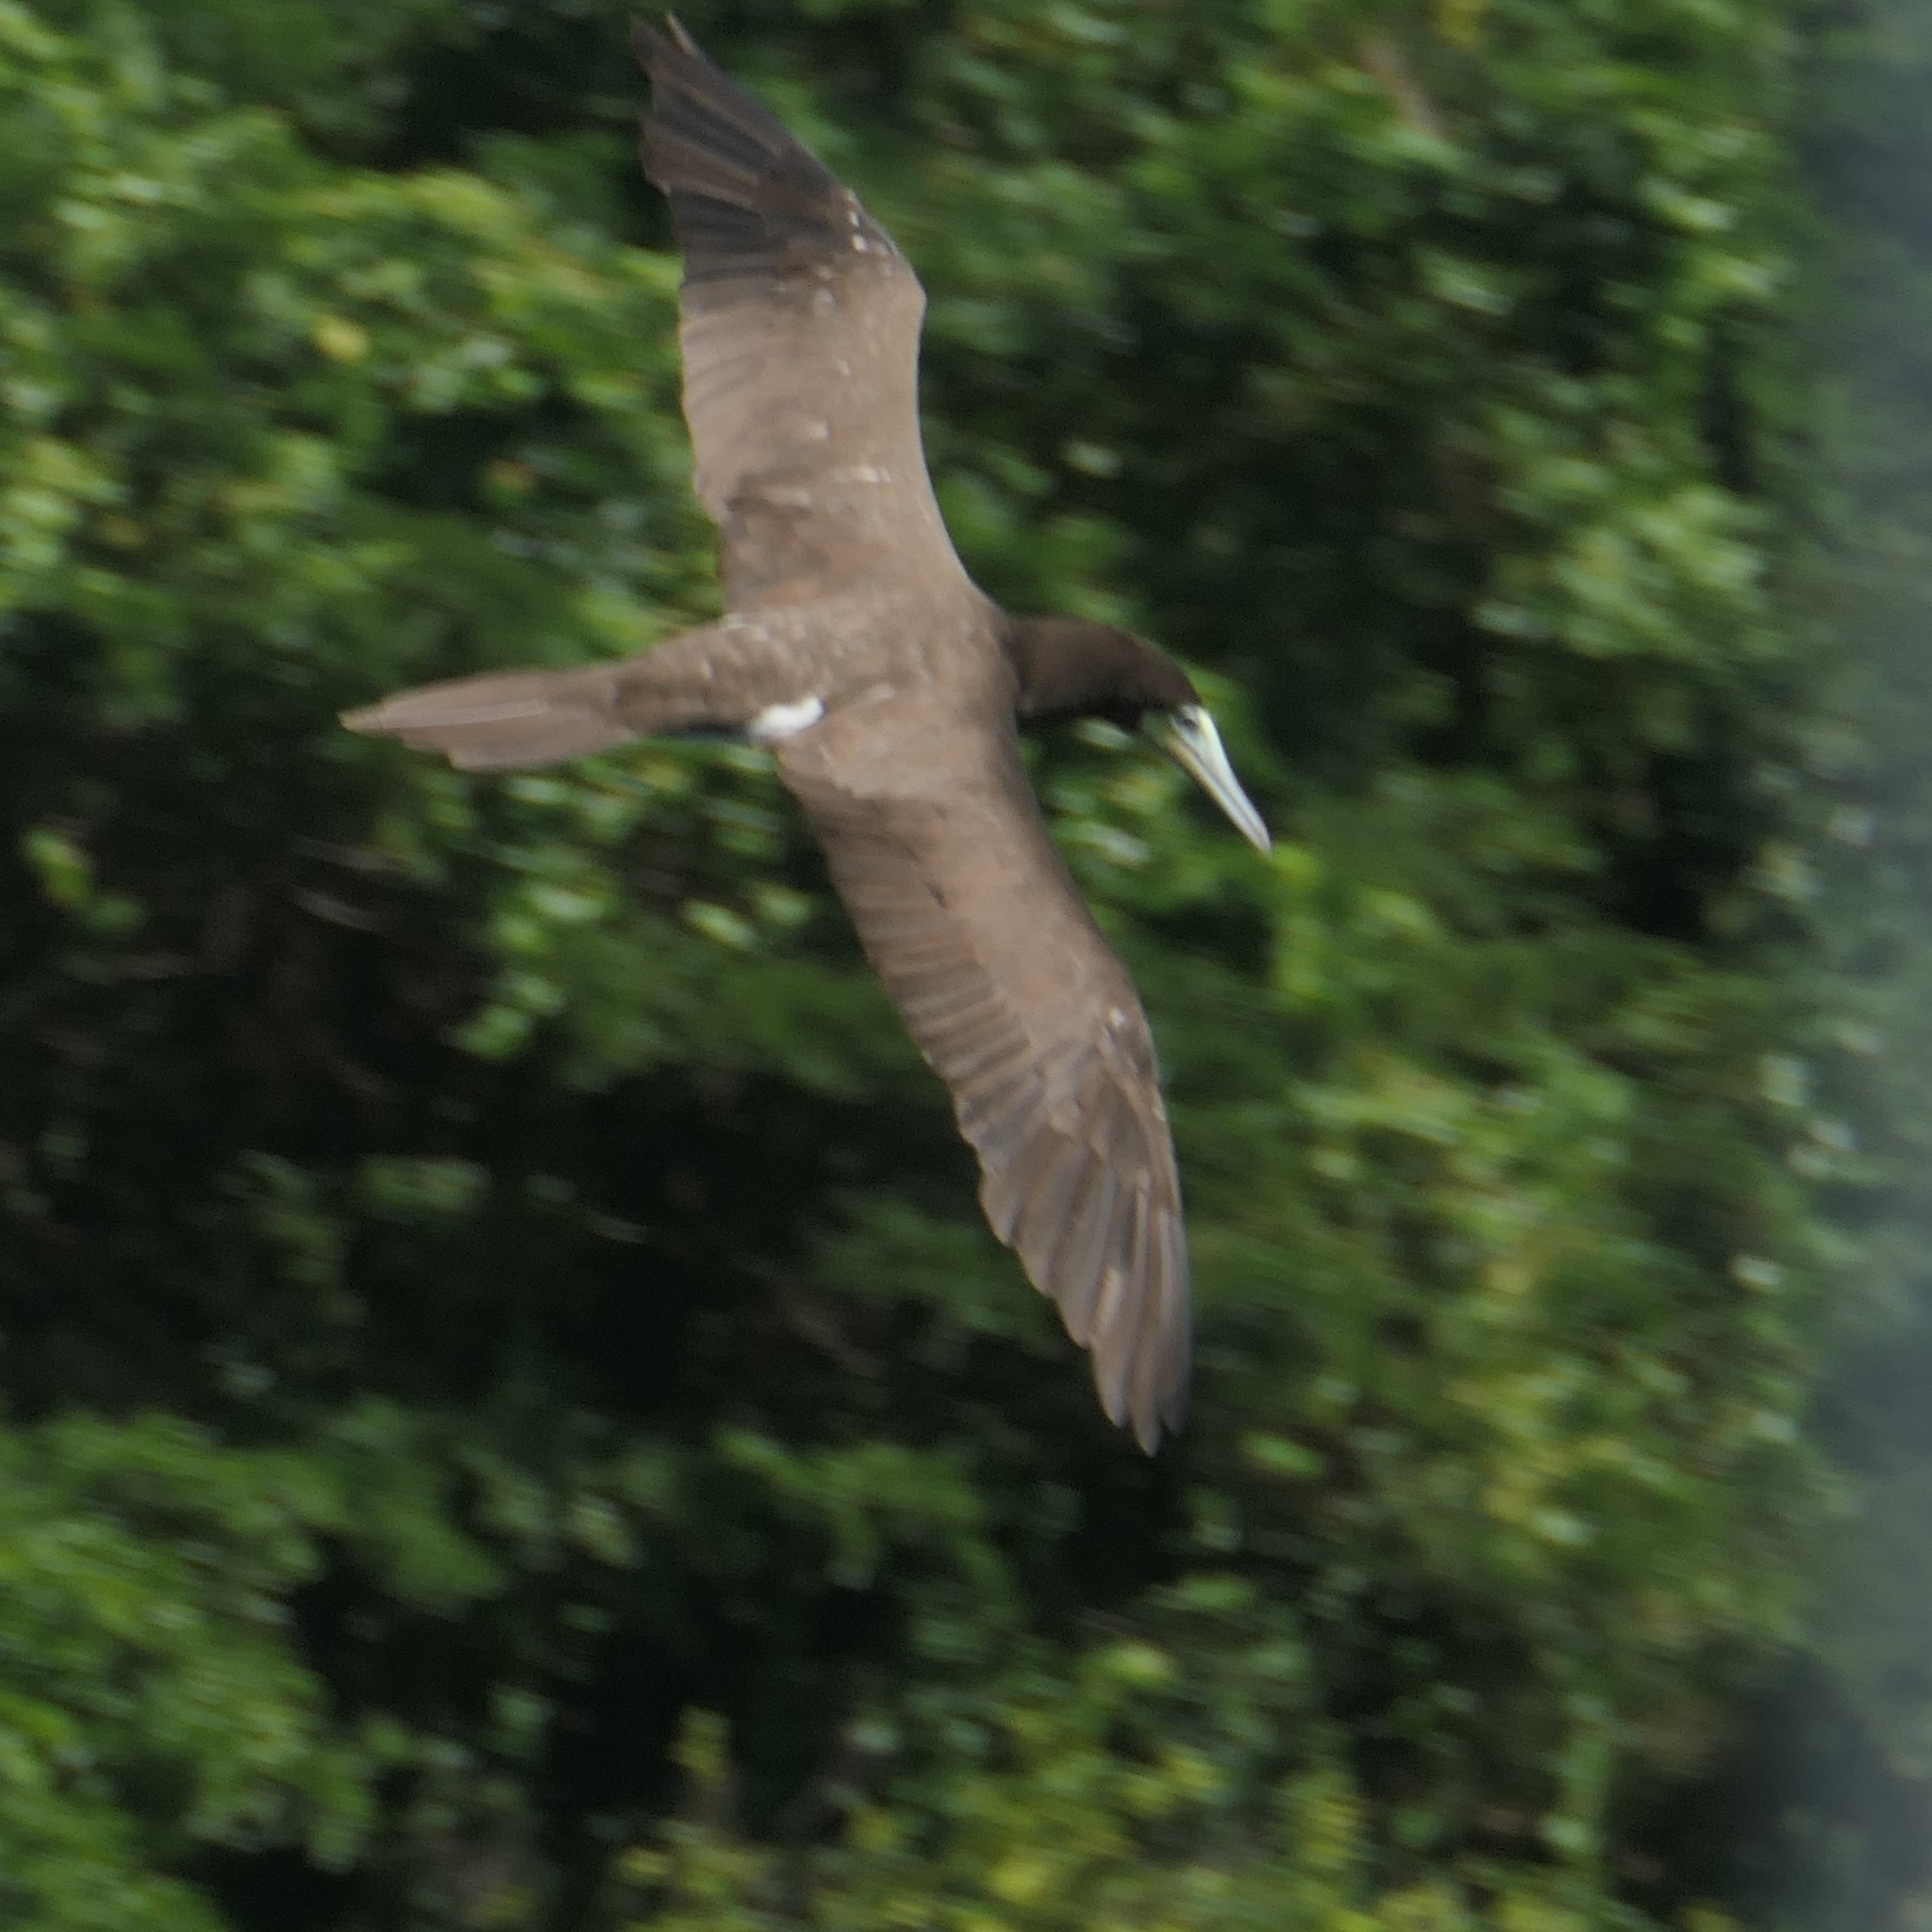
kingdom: Animalia
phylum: Chordata
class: Aves
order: Suliformes
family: Sulidae
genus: Sula
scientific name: Sula leucogaster
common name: Brown booby
